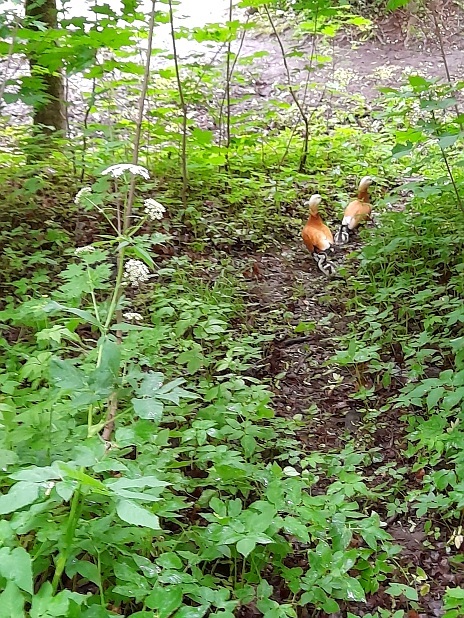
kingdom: Animalia
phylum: Chordata
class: Aves
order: Anseriformes
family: Anatidae
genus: Tadorna
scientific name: Tadorna ferruginea
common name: Ruddy shelduck
